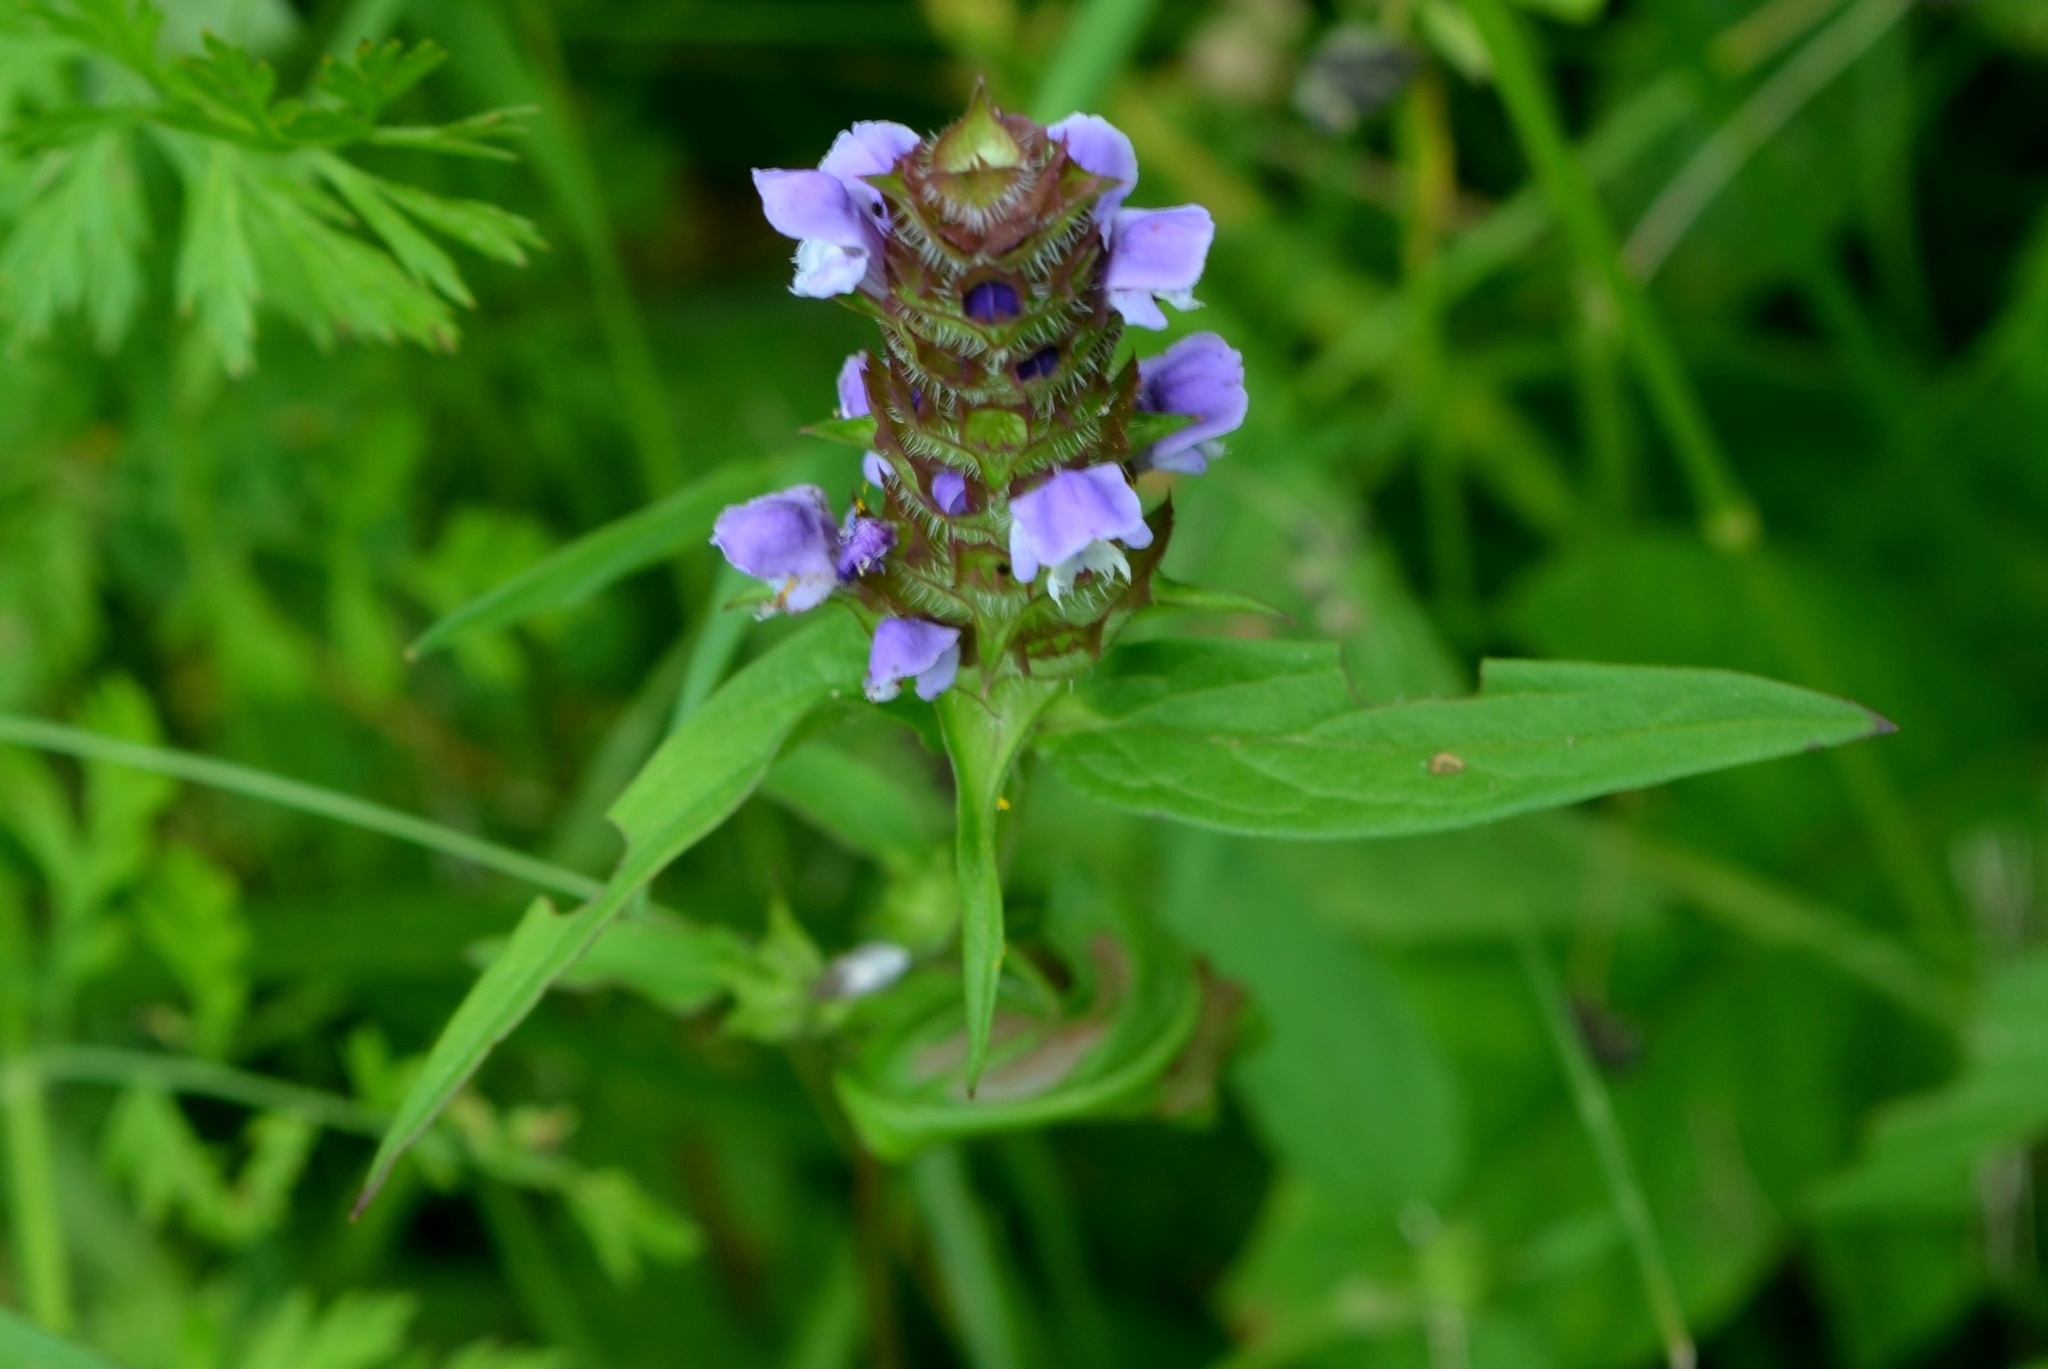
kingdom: Plantae
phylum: Tracheophyta
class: Magnoliopsida
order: Lamiales
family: Lamiaceae
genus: Prunella
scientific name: Prunella vulgaris
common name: Heal-all
